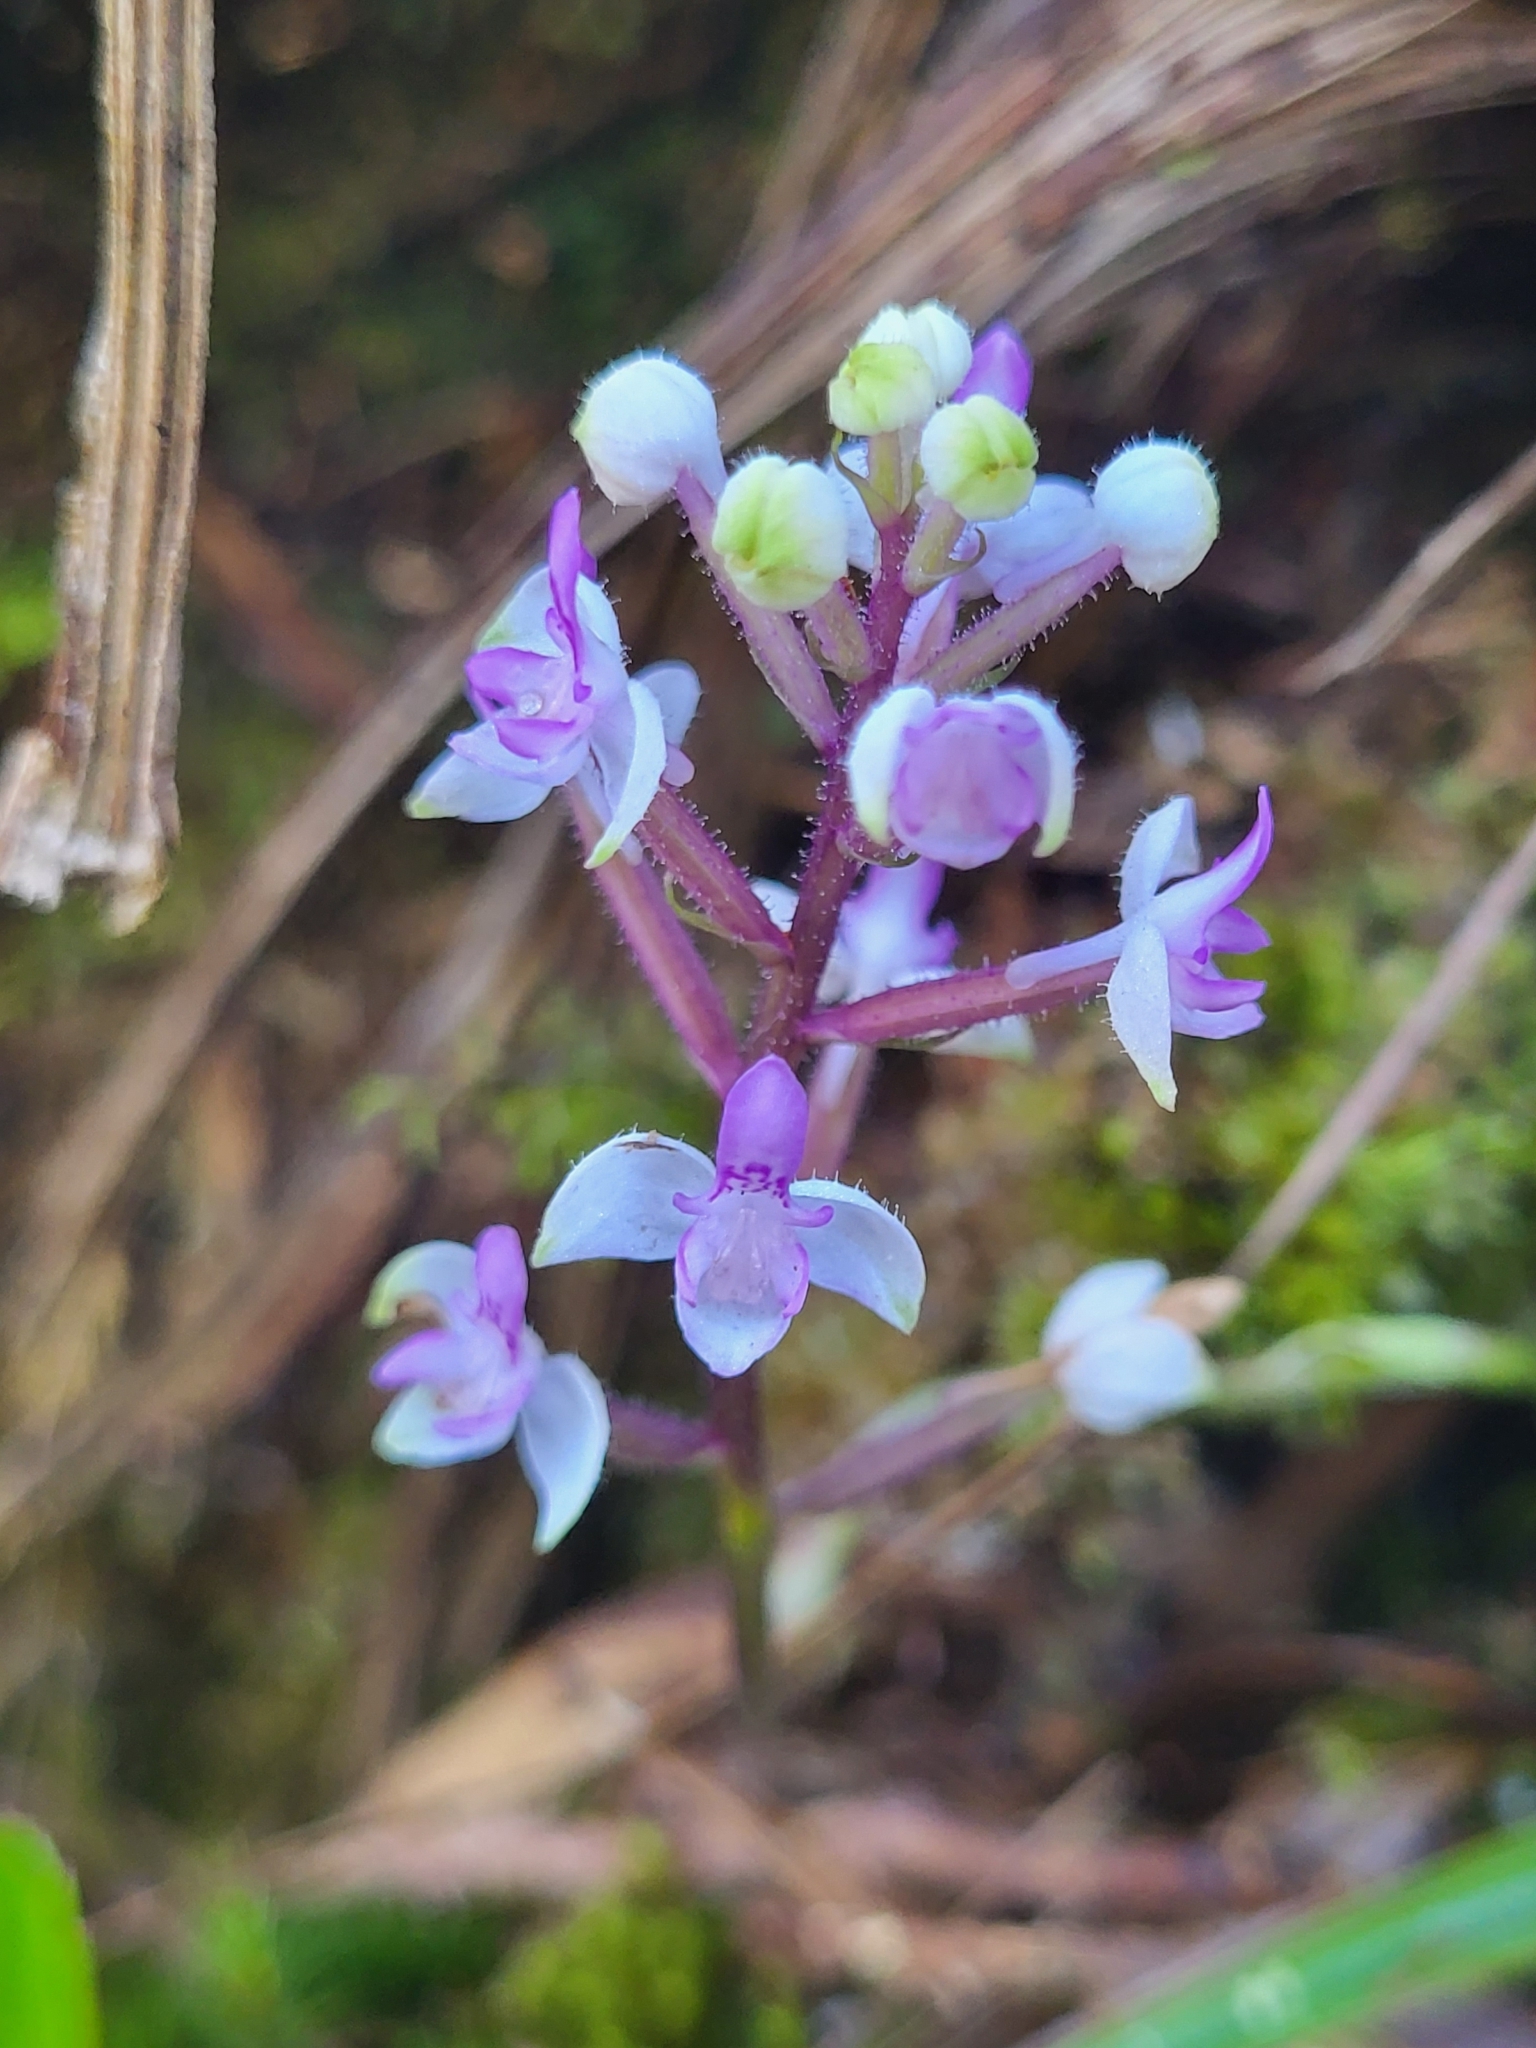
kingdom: Plantae
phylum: Tracheophyta
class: Liliopsida
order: Asparagales
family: Orchidaceae
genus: Cynorkis
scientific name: Cynorkis ridleyi
